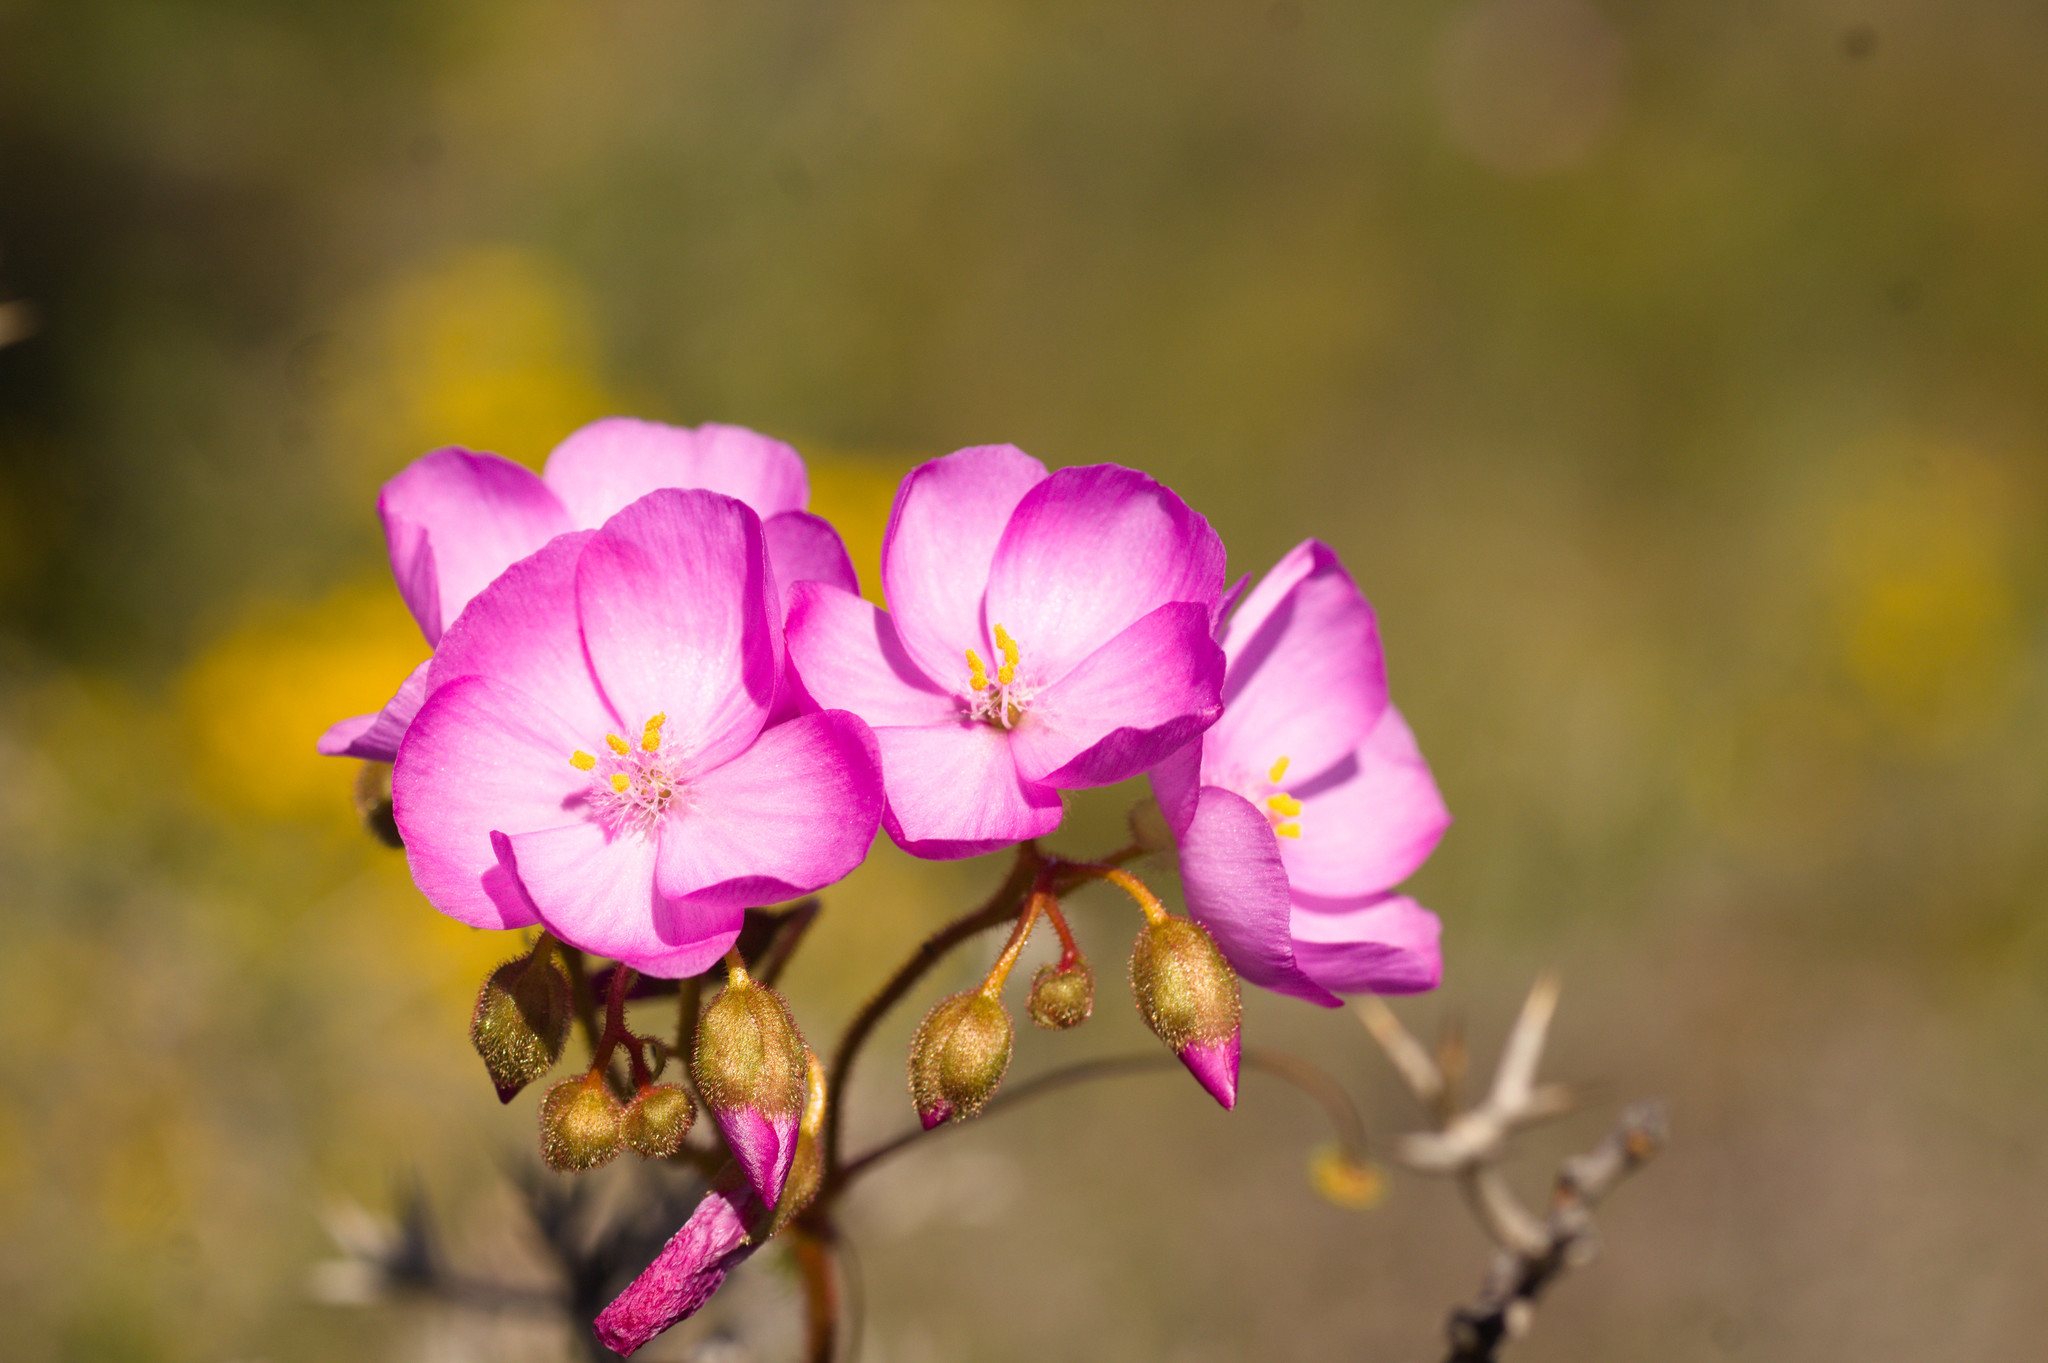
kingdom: Plantae
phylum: Tracheophyta
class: Magnoliopsida
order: Caryophyllales
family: Droseraceae
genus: Drosera
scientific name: Drosera
